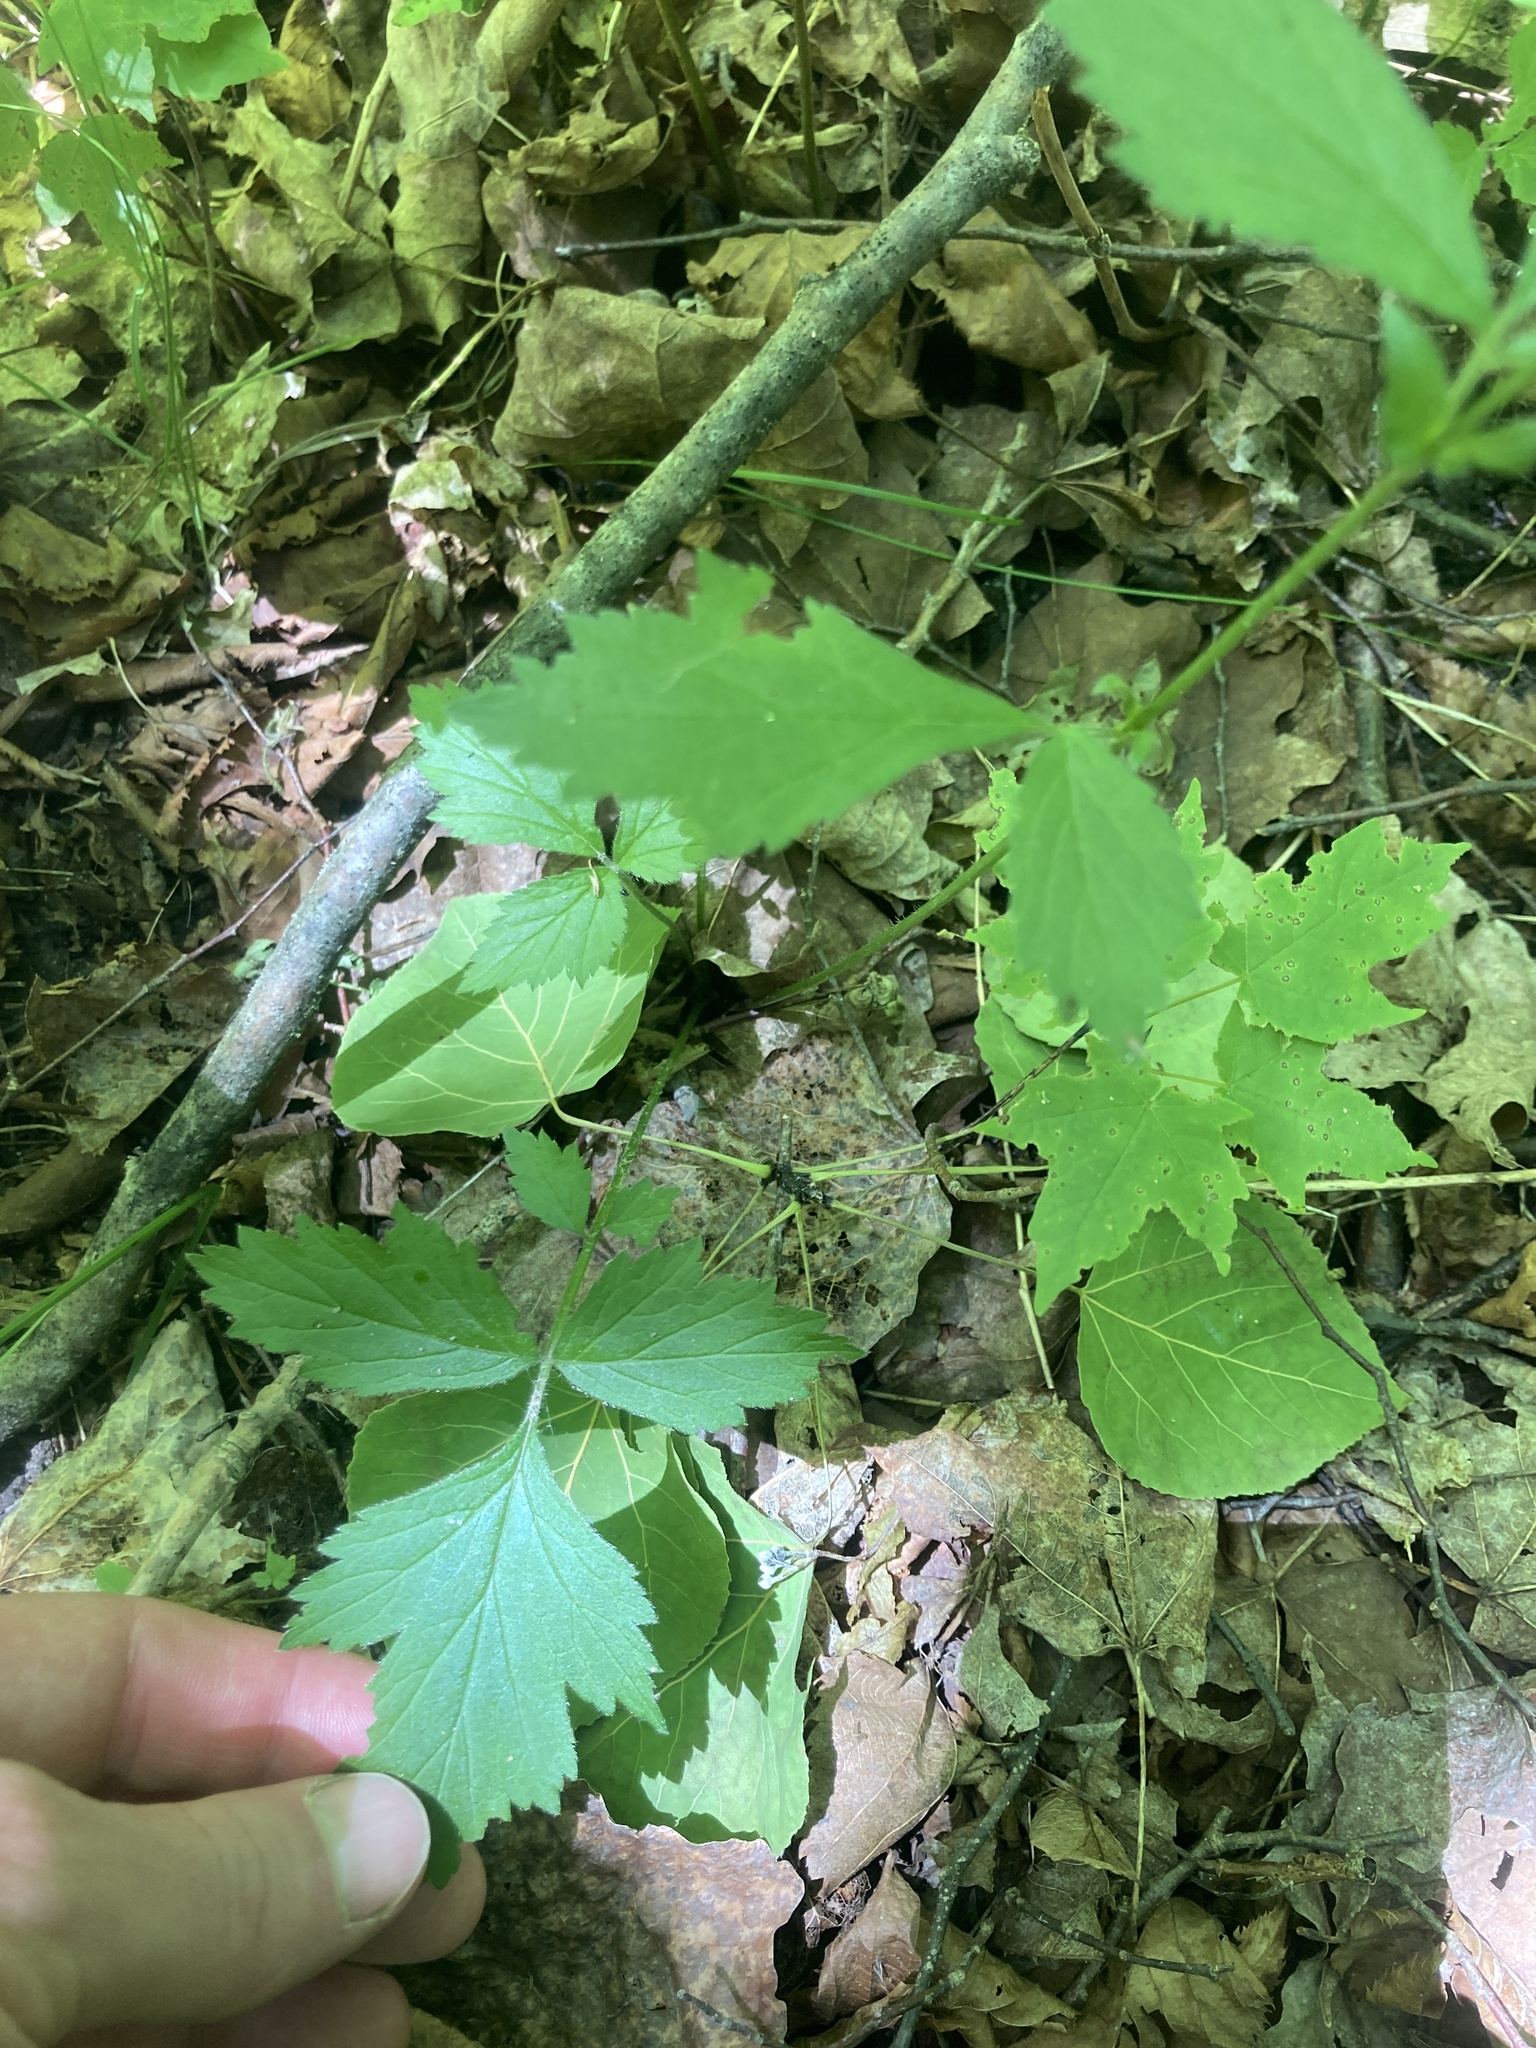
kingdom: Plantae
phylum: Tracheophyta
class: Magnoliopsida
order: Rosales
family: Rosaceae
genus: Geum
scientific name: Geum canadense
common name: White avens
